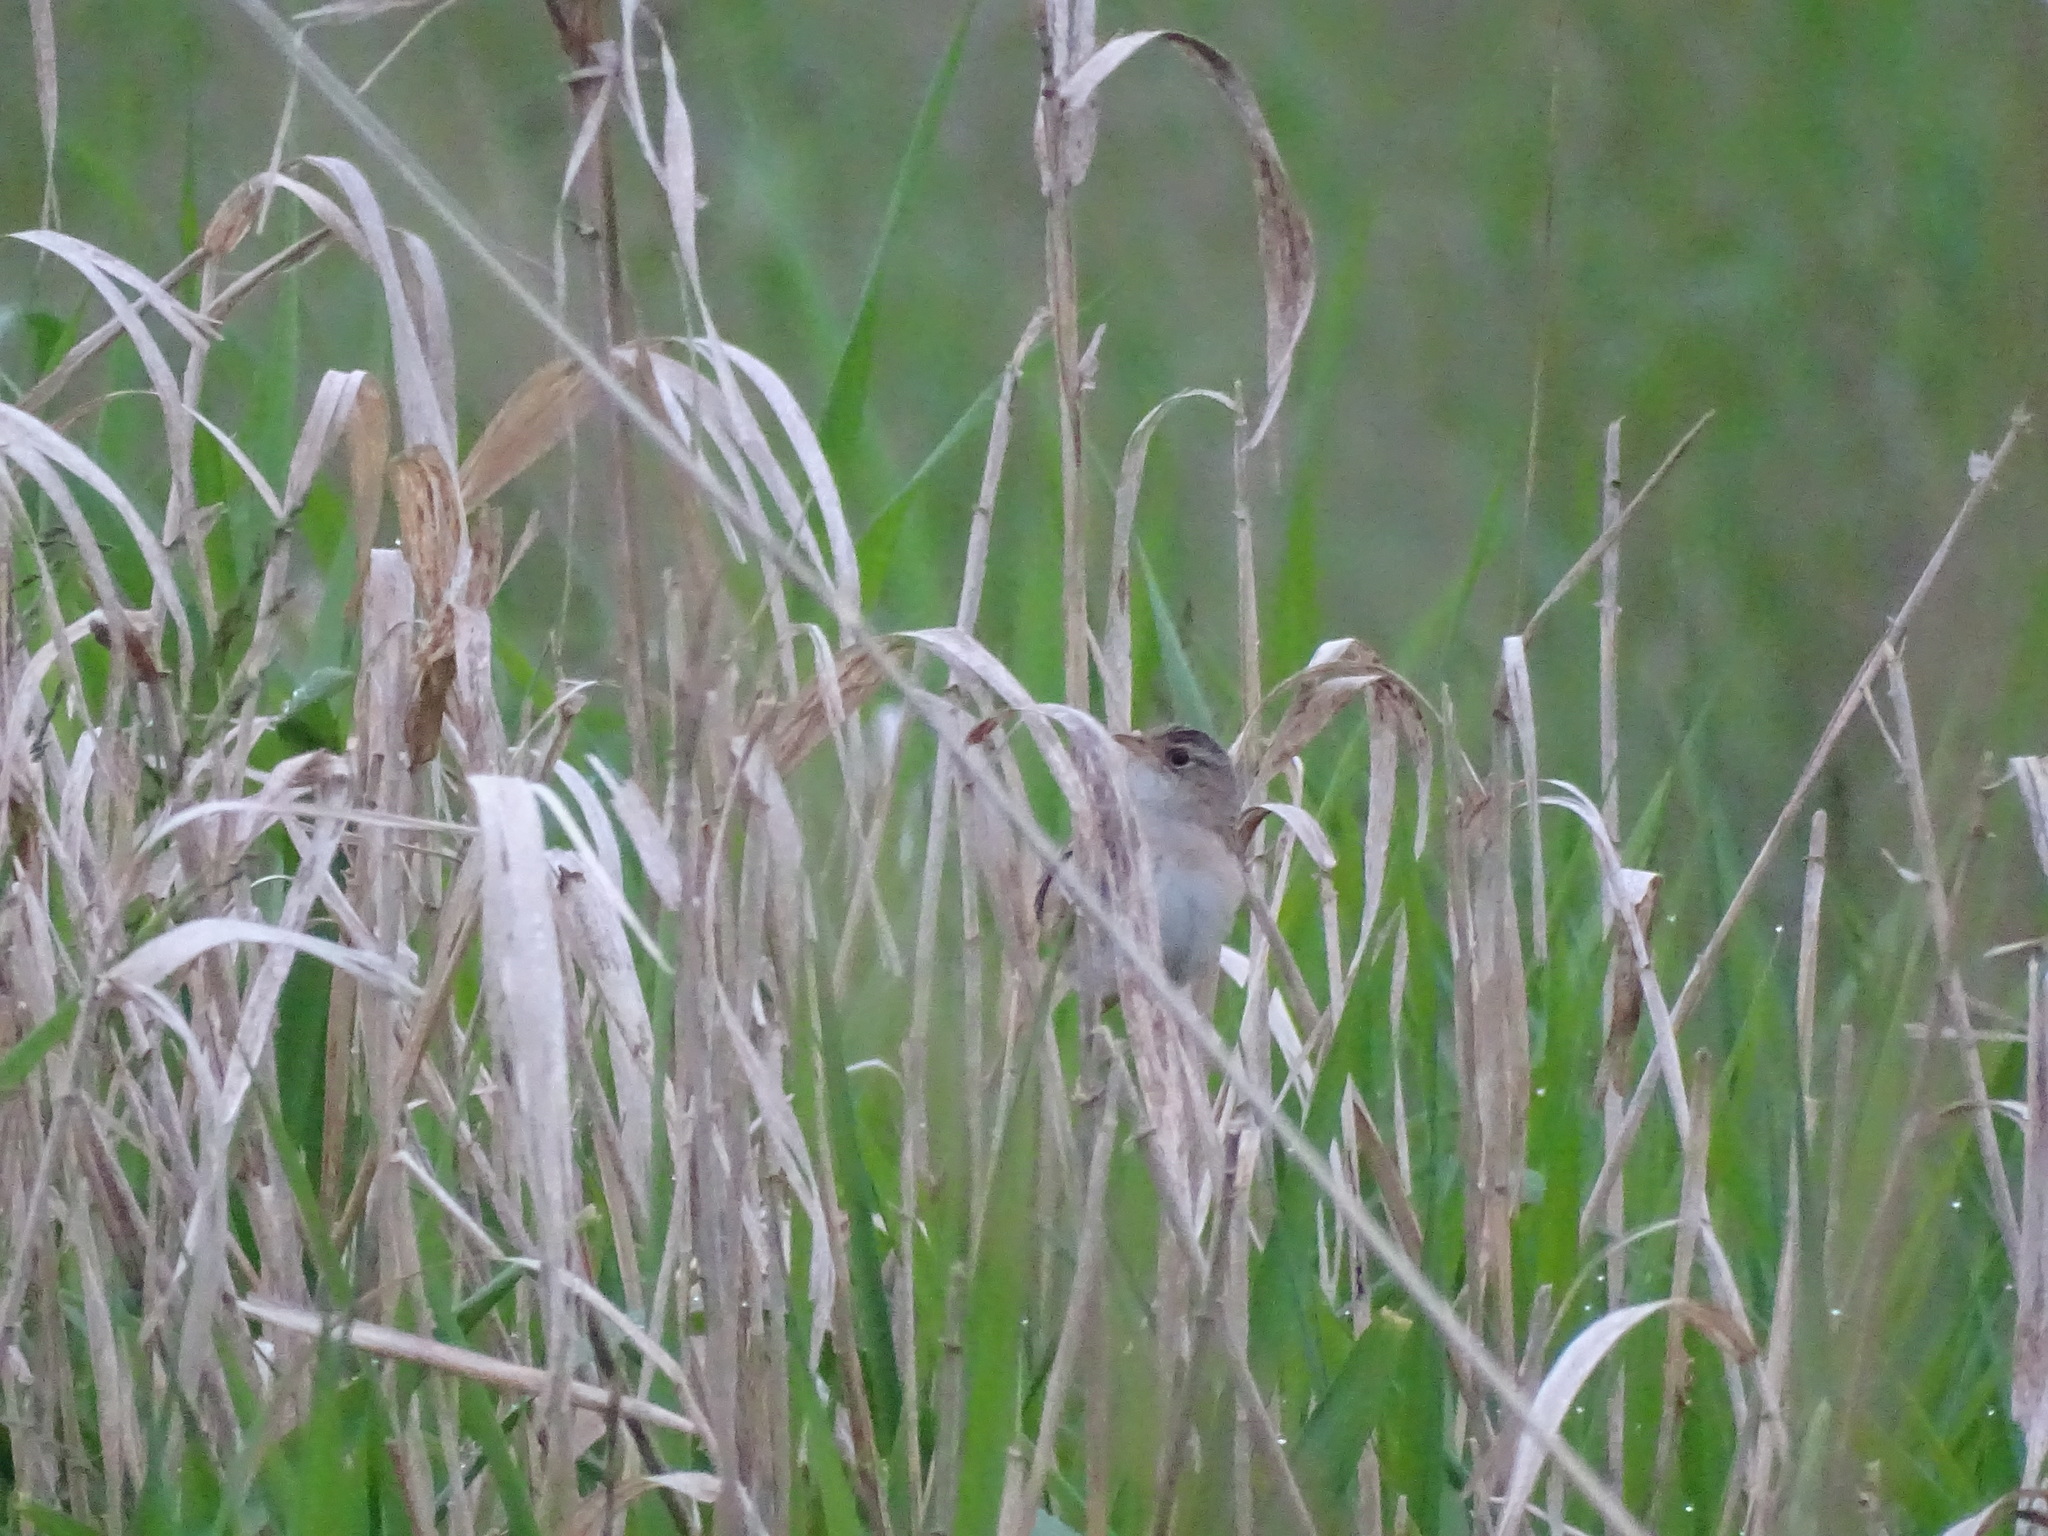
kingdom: Animalia
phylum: Chordata
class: Aves
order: Passeriformes
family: Troglodytidae
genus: Cistothorus
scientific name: Cistothorus platensis
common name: Sedge wren
